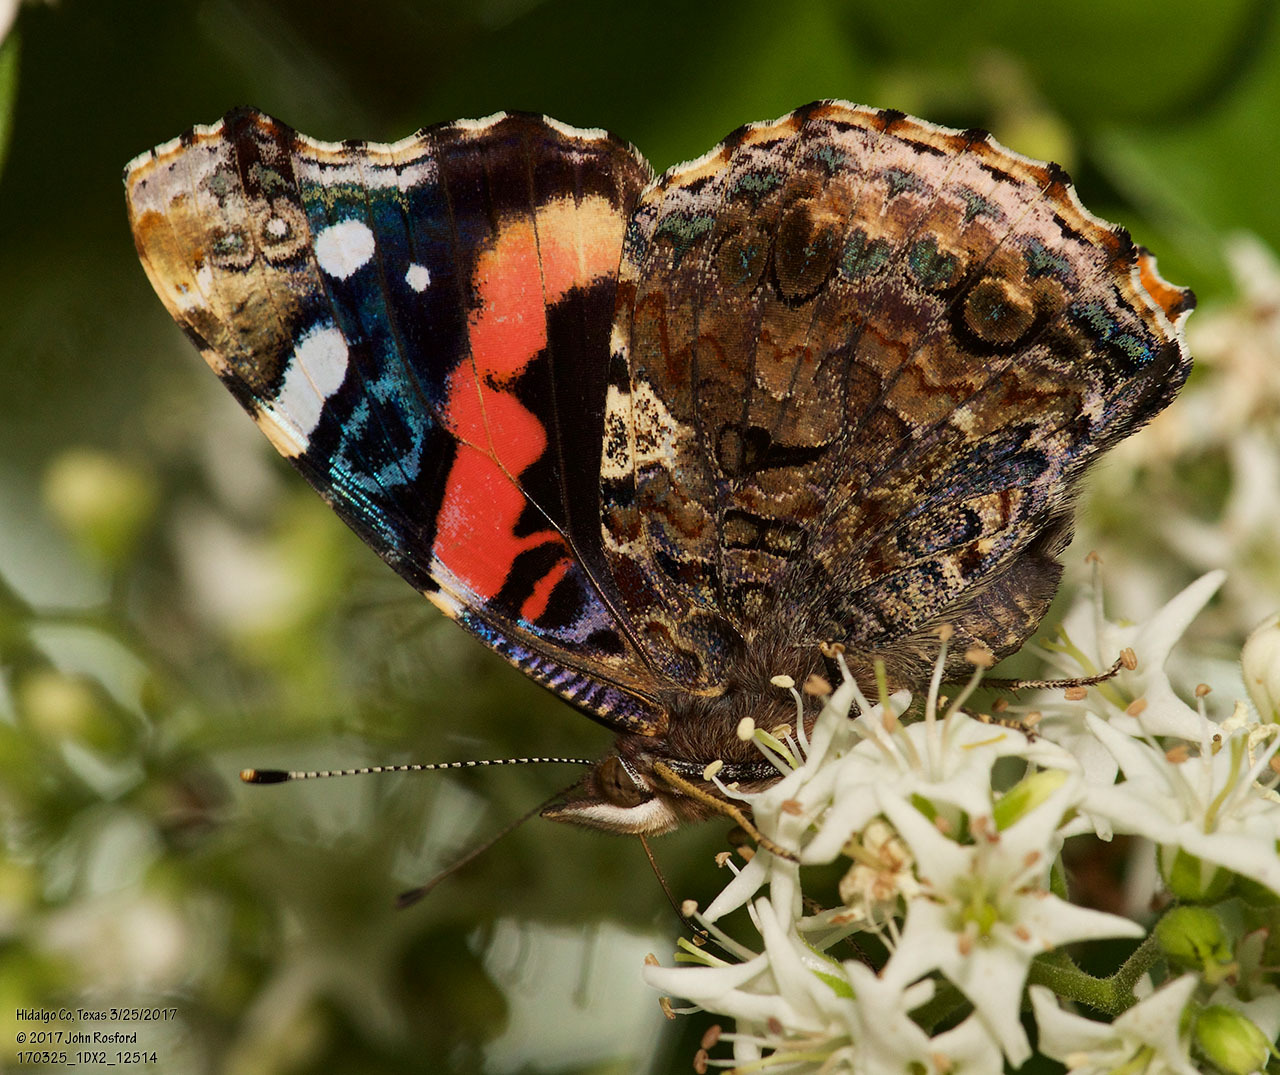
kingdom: Animalia
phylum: Arthropoda
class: Insecta
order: Lepidoptera
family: Nymphalidae
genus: Vanessa
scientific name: Vanessa atalanta
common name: Red admiral
